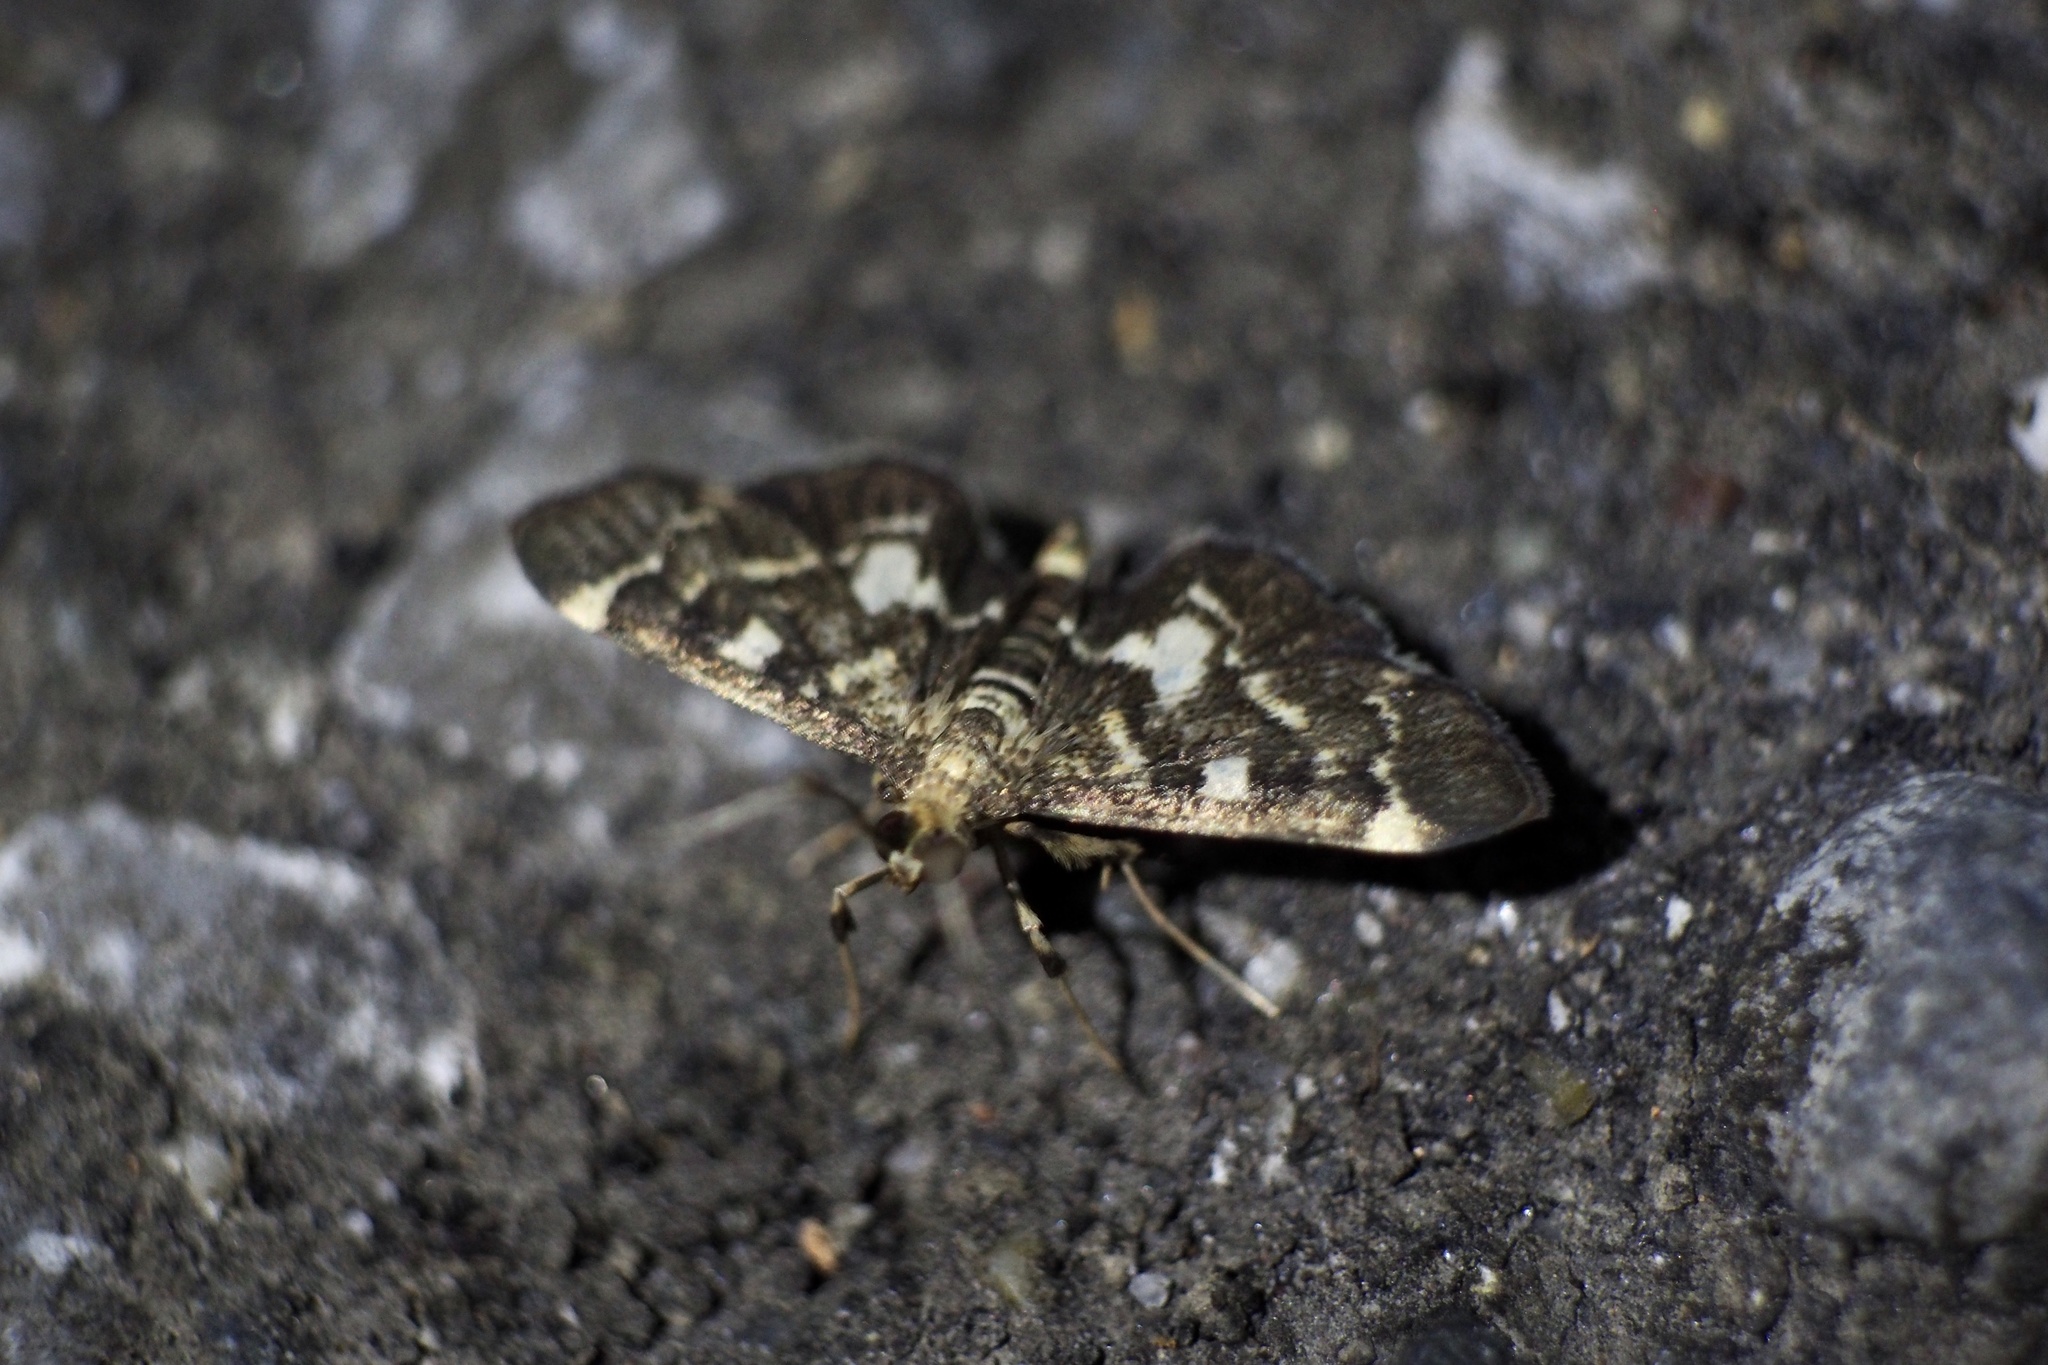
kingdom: Animalia
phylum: Arthropoda
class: Insecta
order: Lepidoptera
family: Crambidae
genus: Piletocera
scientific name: Piletocera sodalis
